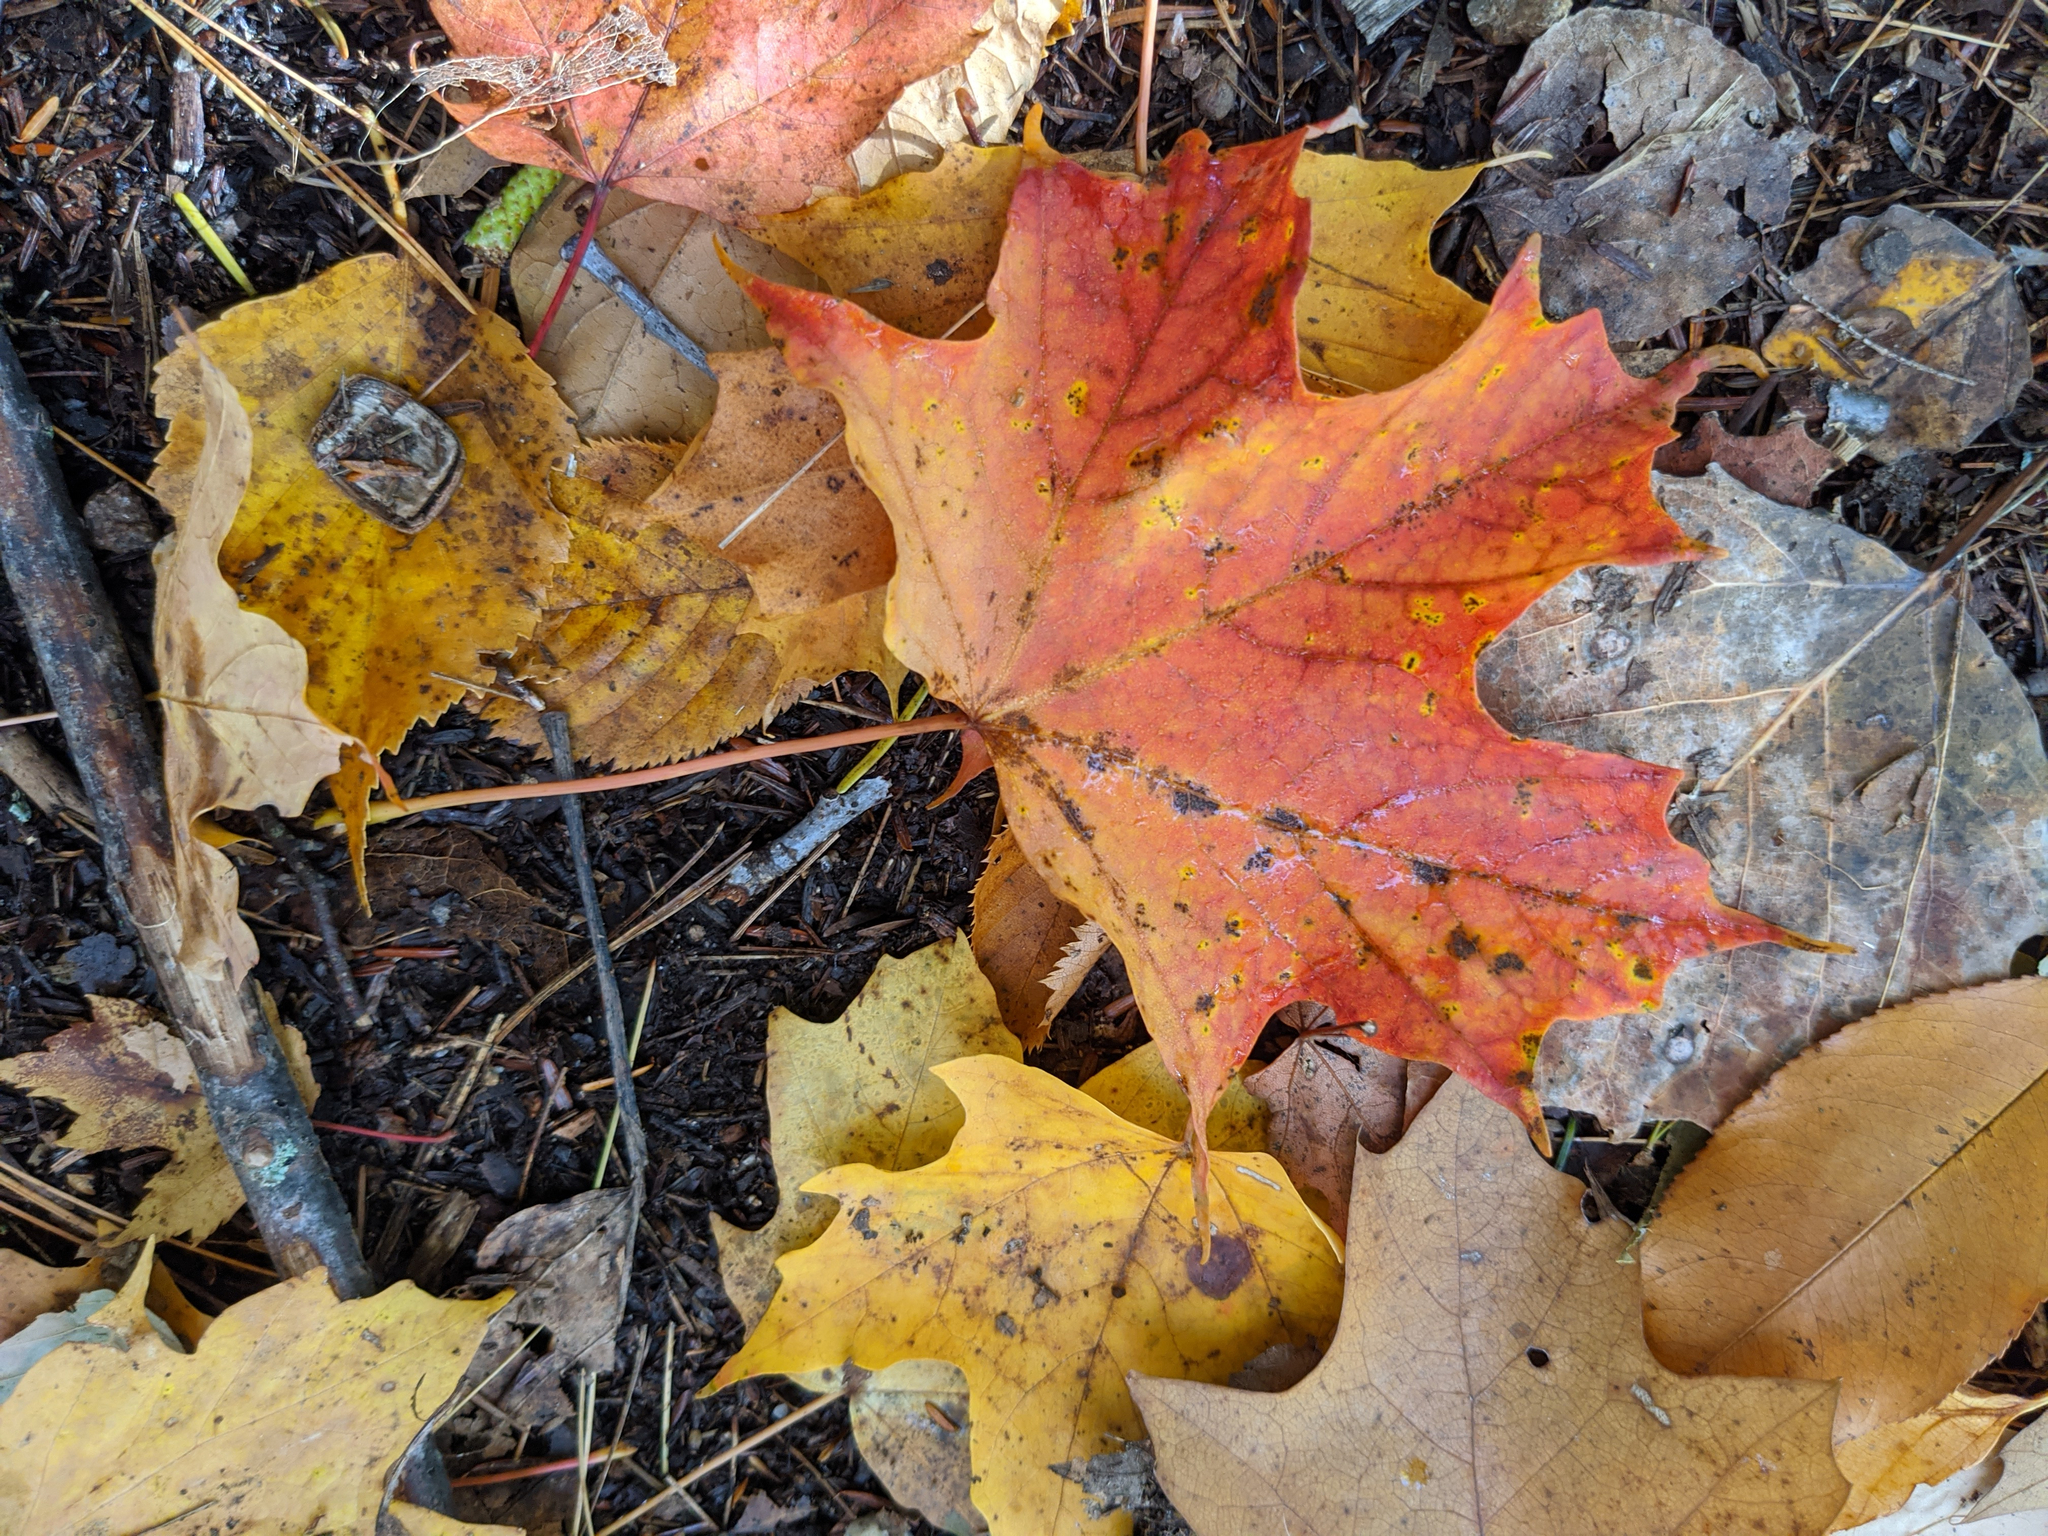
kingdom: Plantae
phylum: Tracheophyta
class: Magnoliopsida
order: Sapindales
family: Sapindaceae
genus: Acer
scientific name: Acer saccharum
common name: Sugar maple
